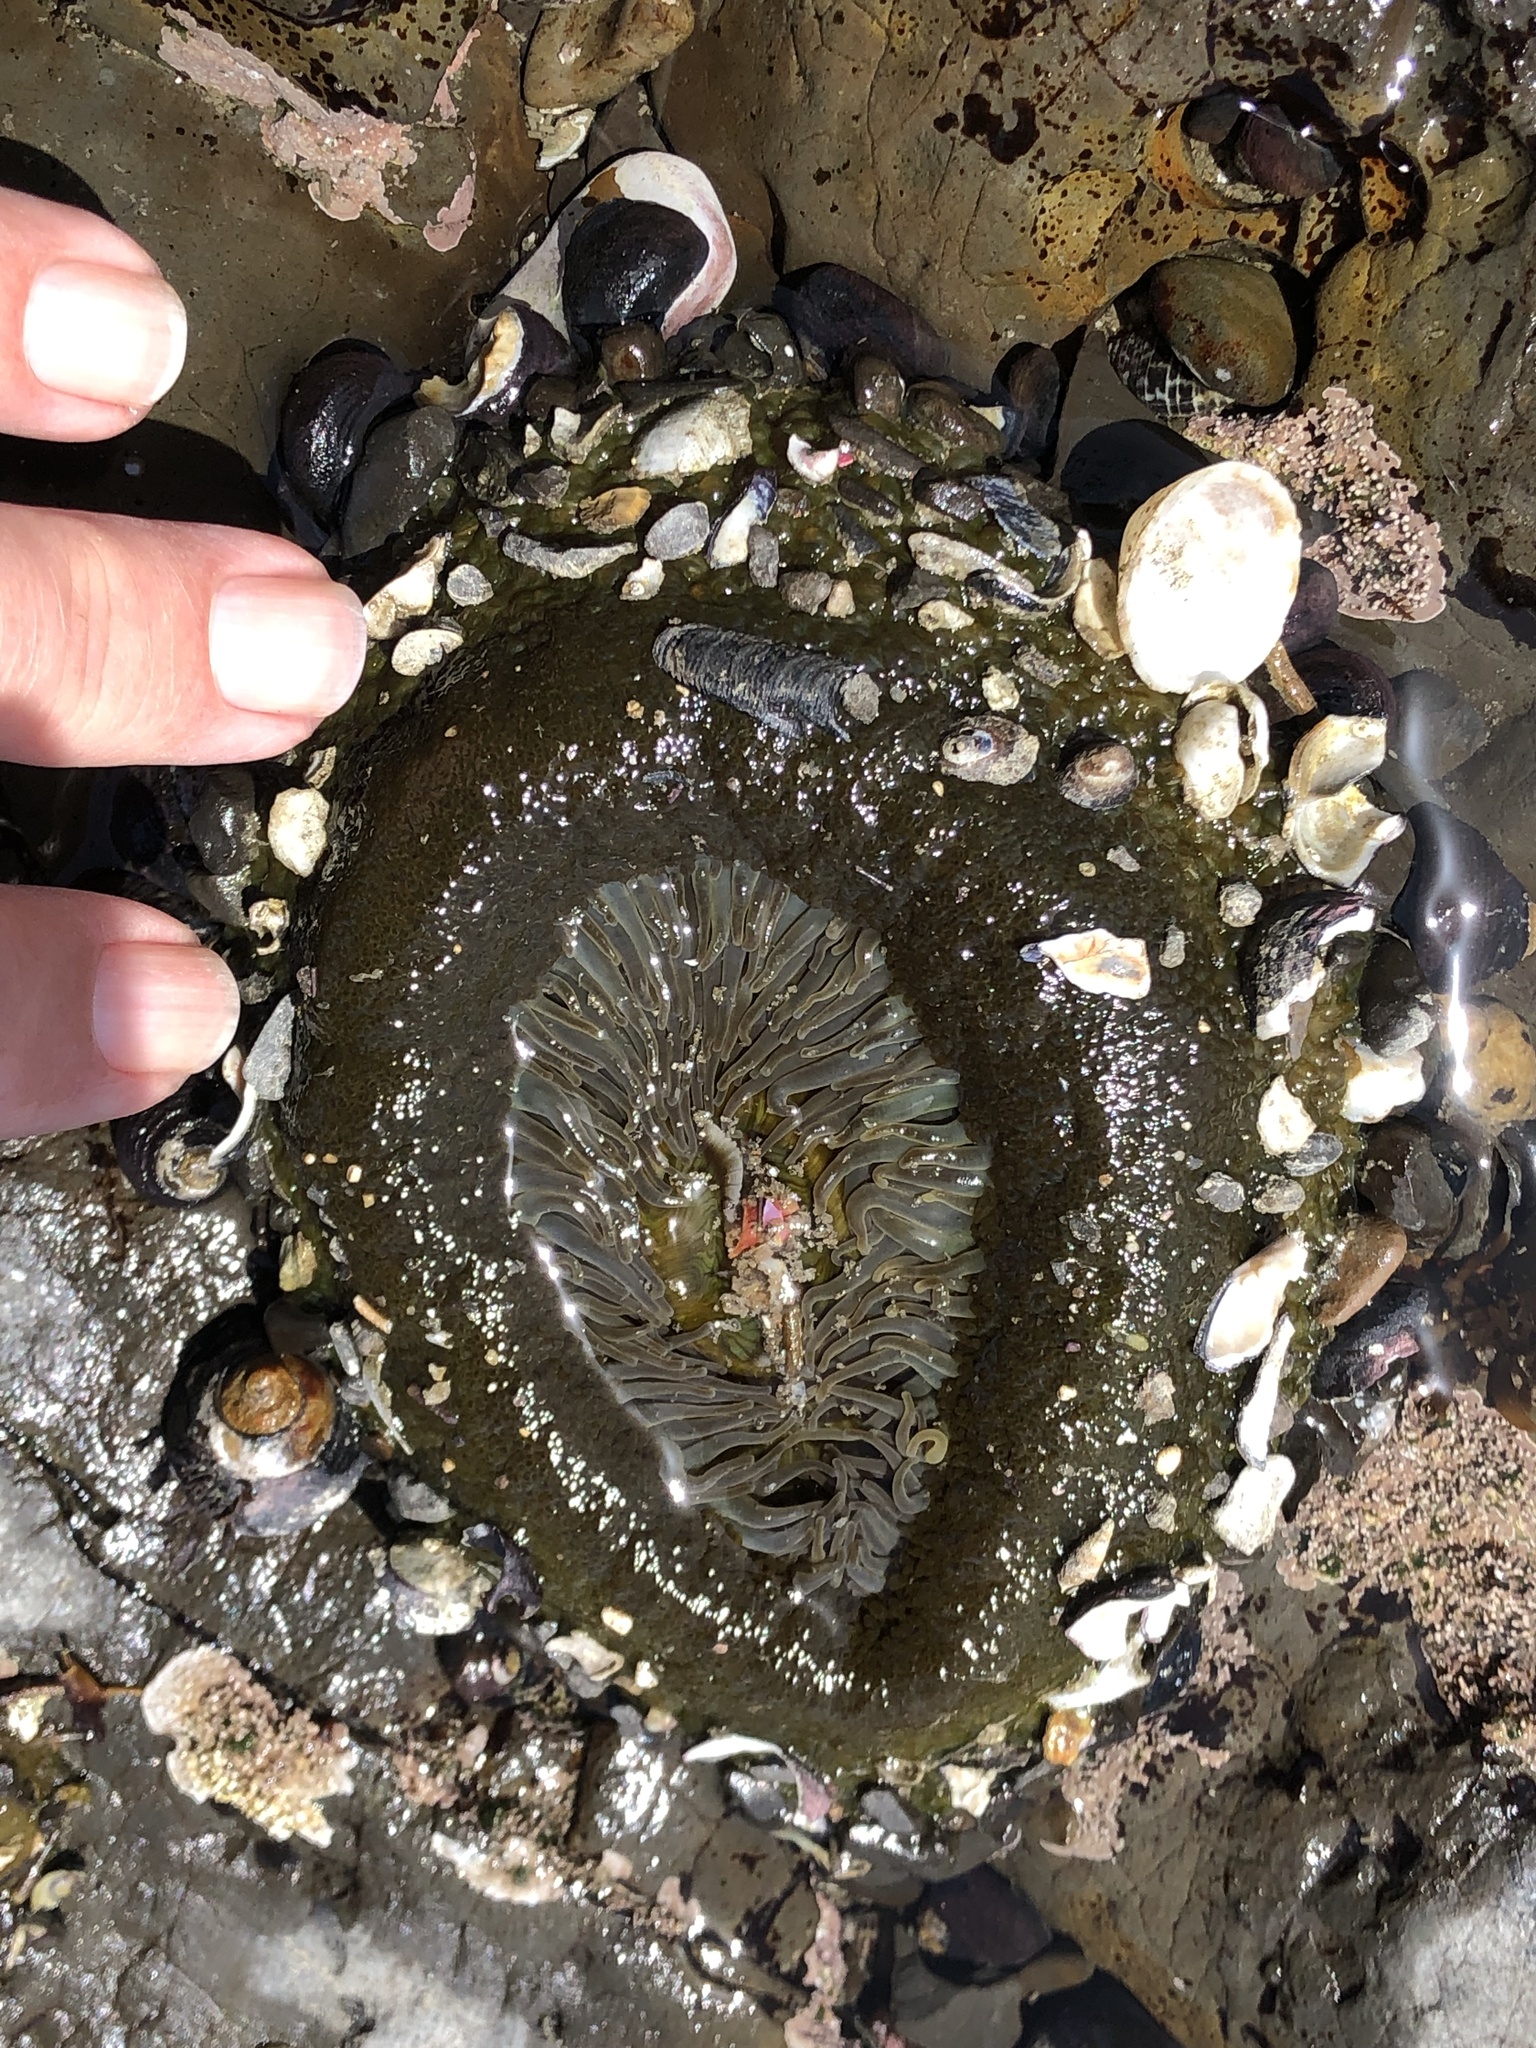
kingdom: Animalia
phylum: Cnidaria
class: Anthozoa
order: Actiniaria
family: Actiniidae
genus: Anthopleura
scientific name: Anthopleura sola
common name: Sun anemone
